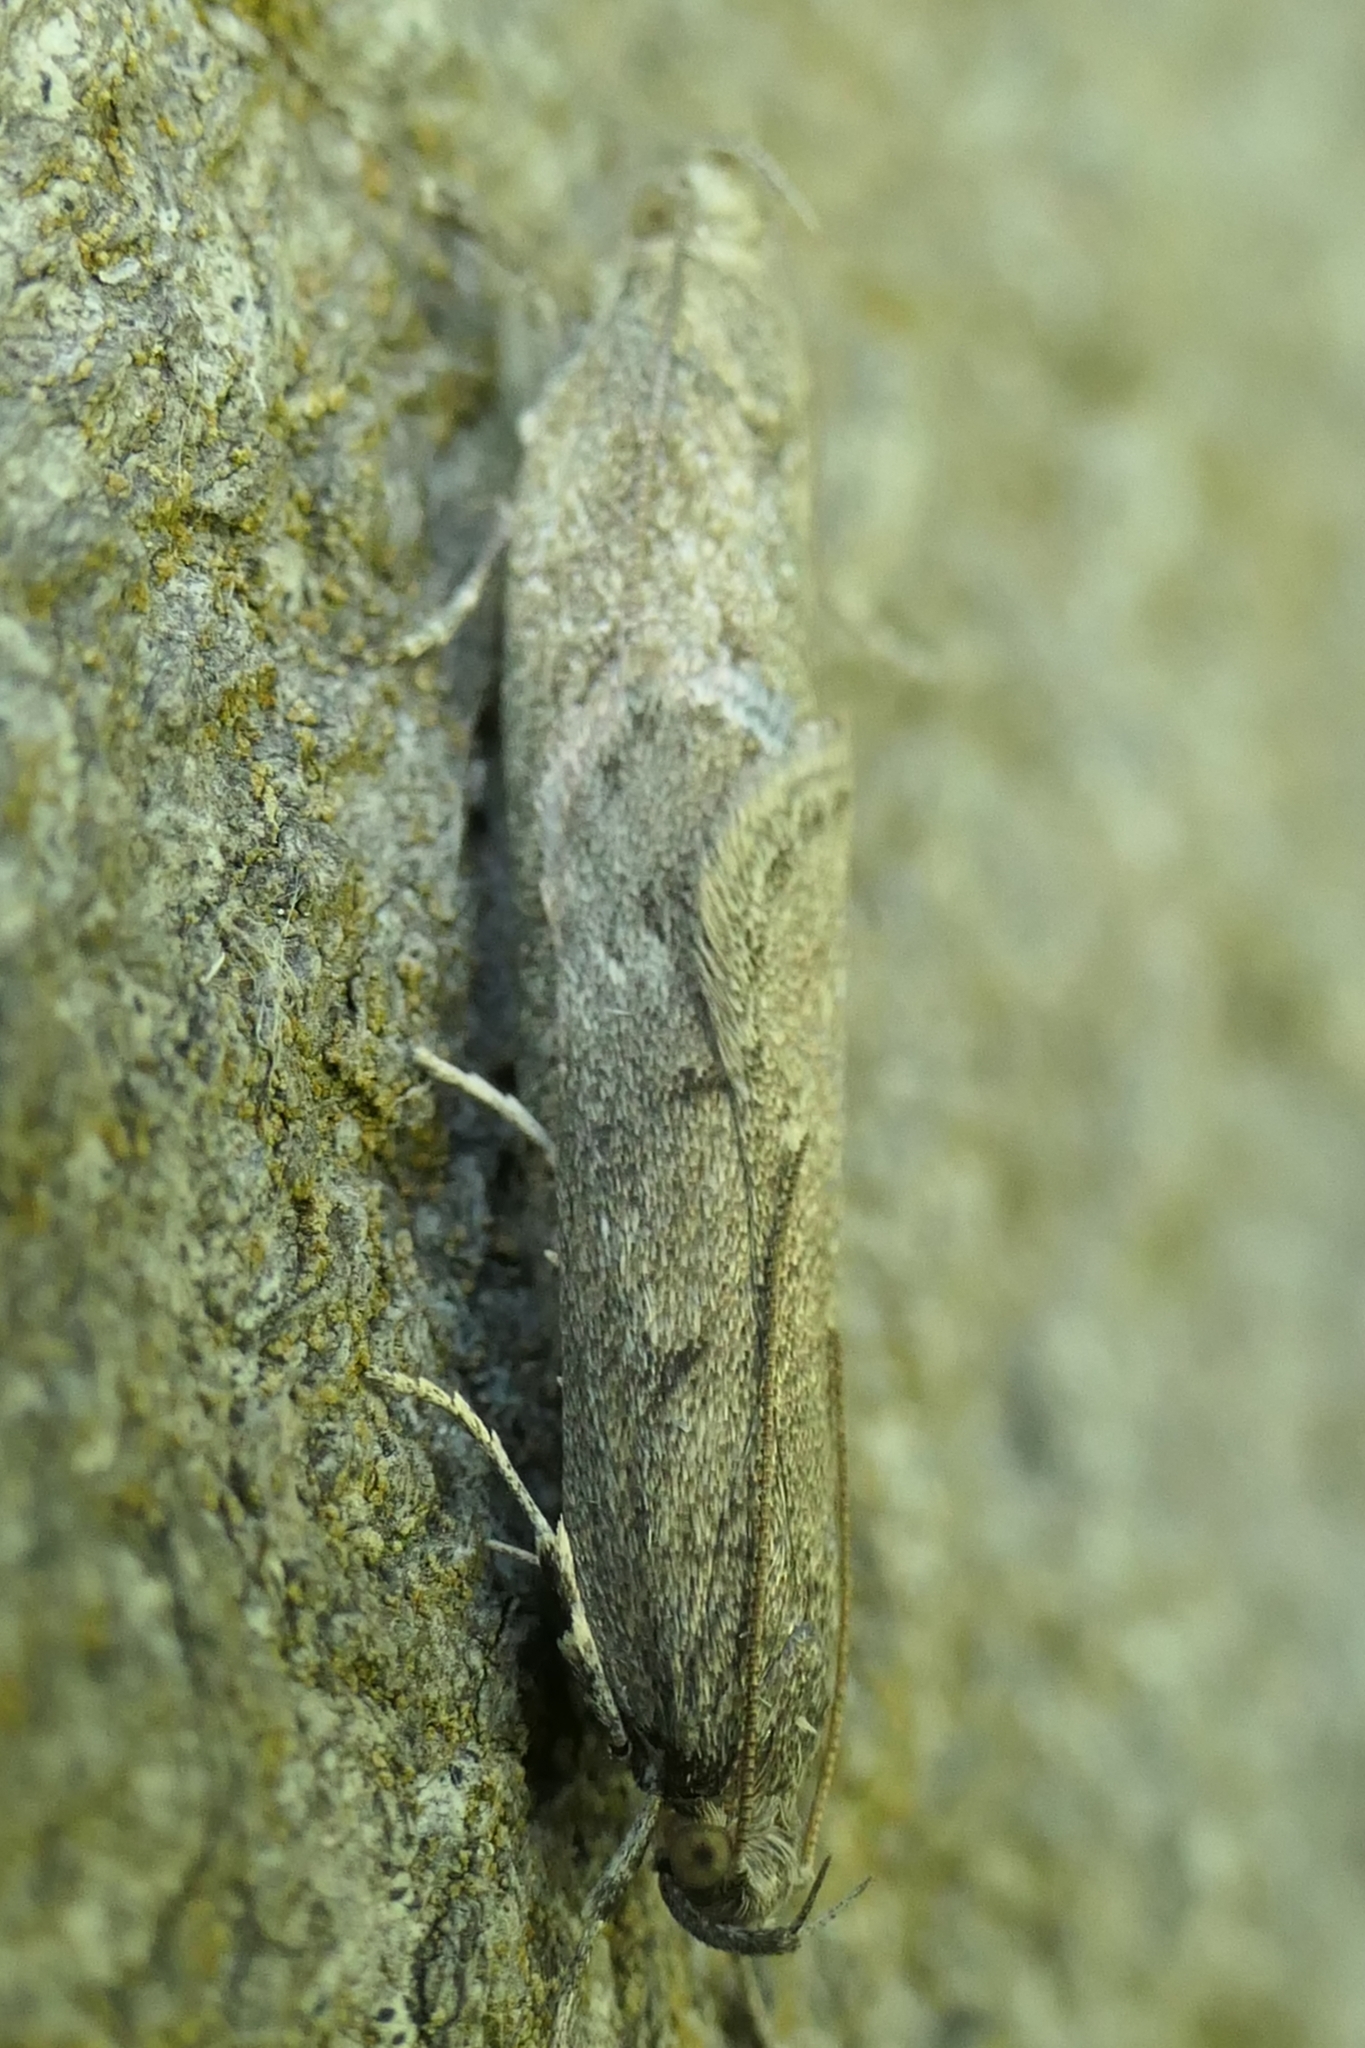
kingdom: Animalia
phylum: Arthropoda
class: Insecta
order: Lepidoptera
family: Depressariidae
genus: Phaeosaces
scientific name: Phaeosaces apocrypta
